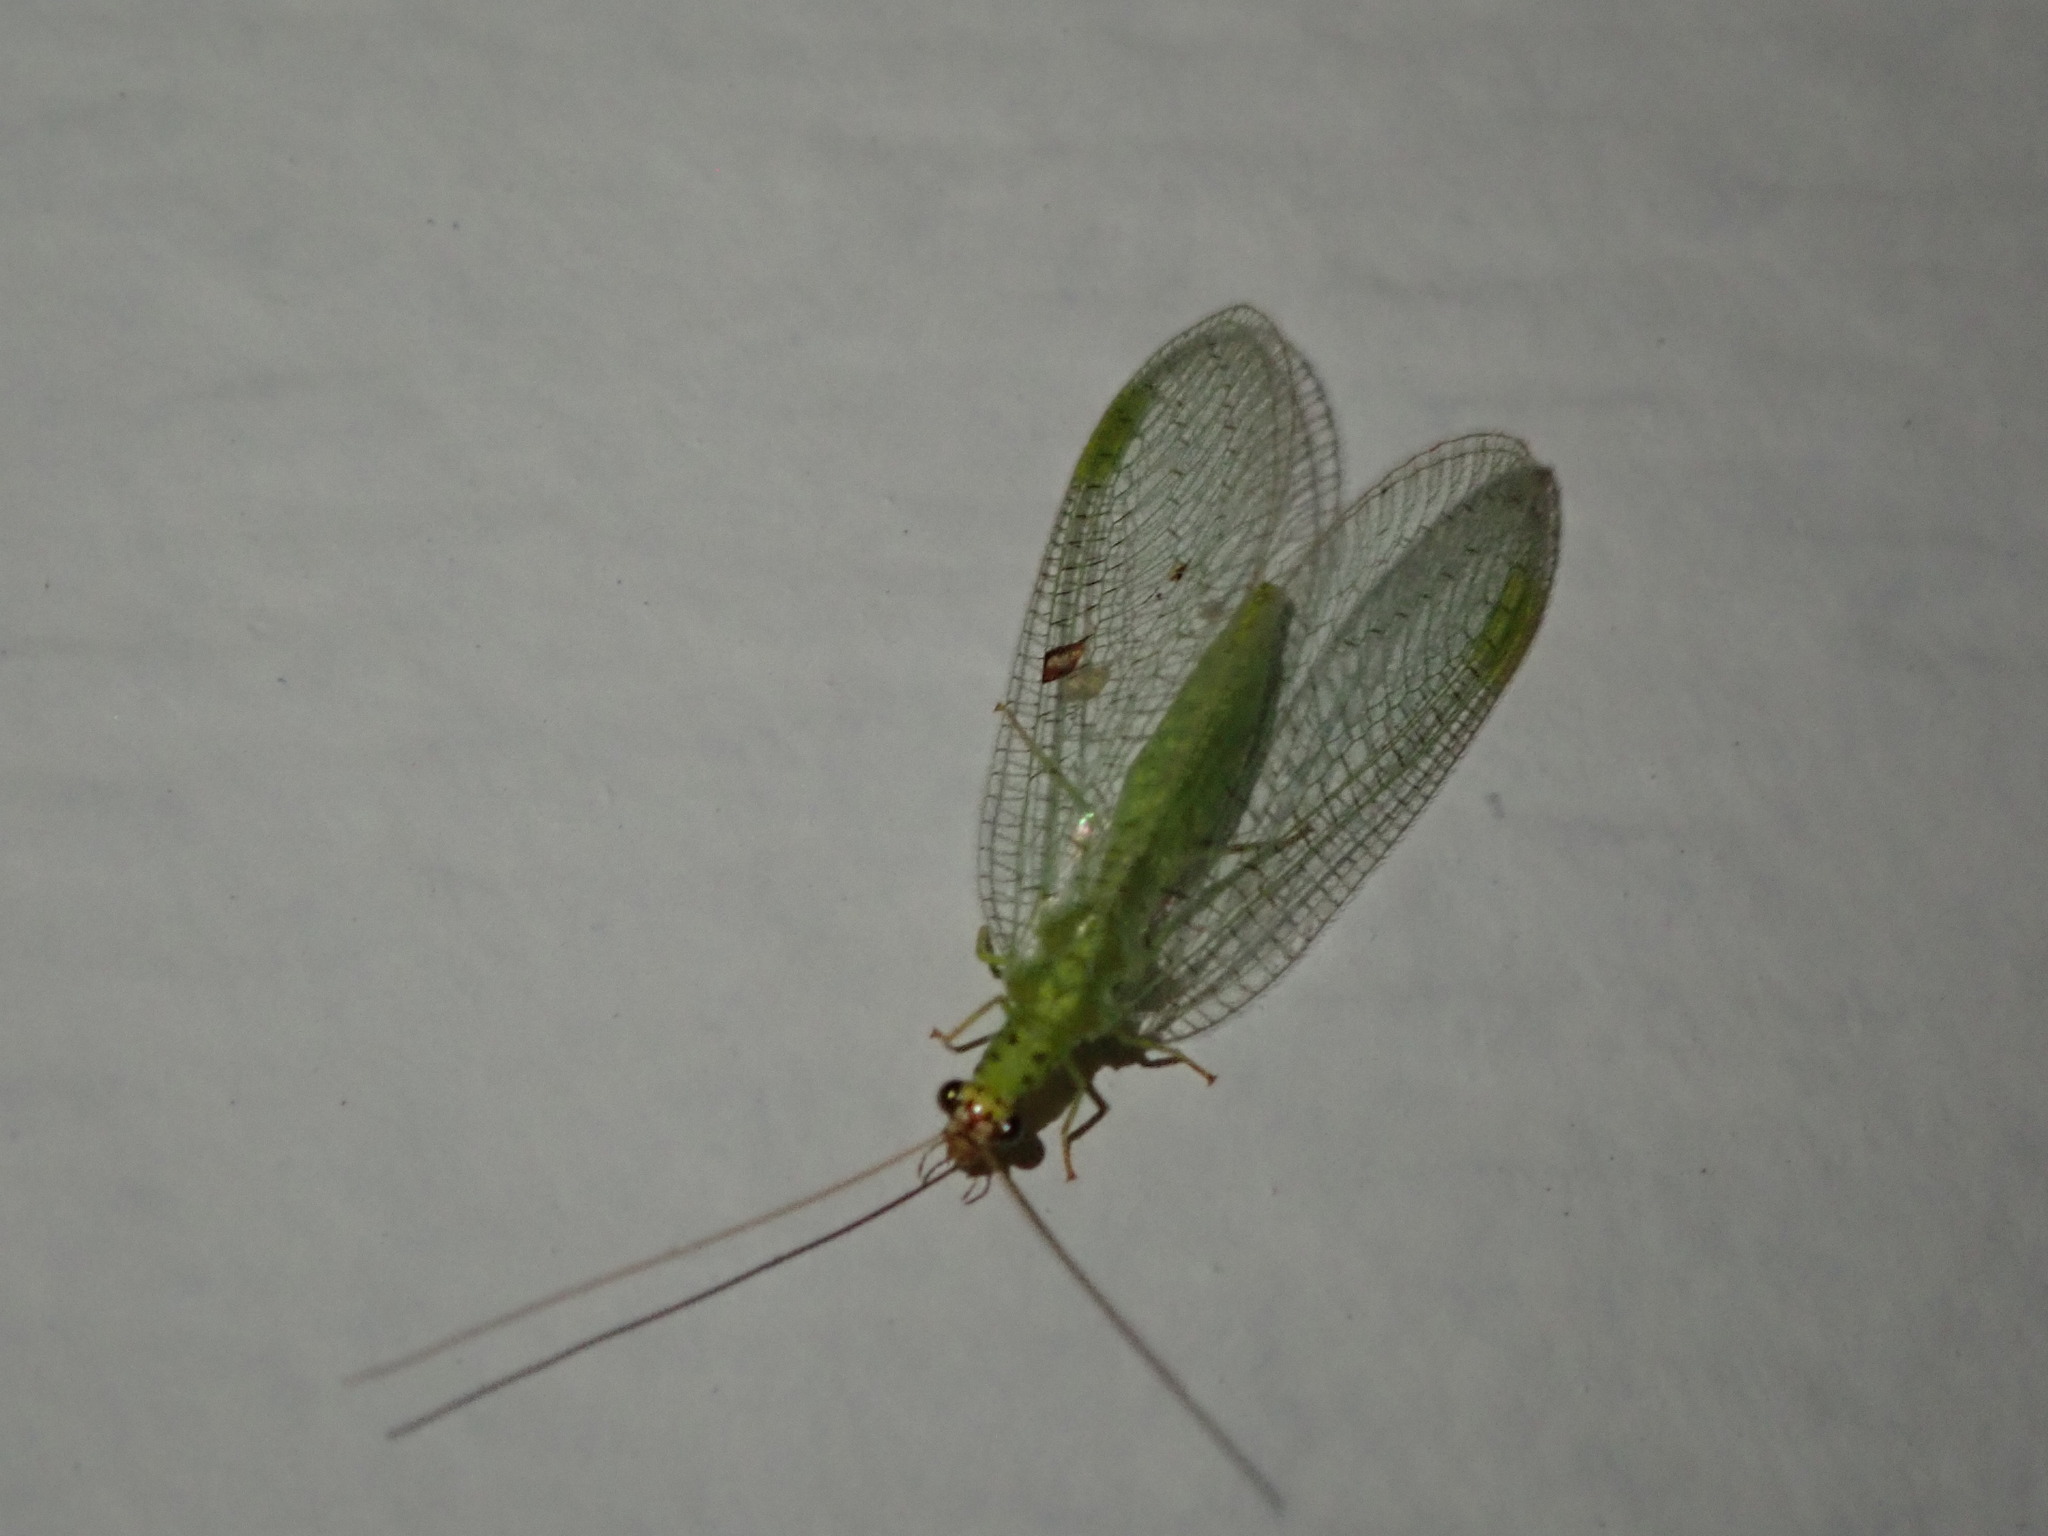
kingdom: Animalia
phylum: Arthropoda
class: Insecta
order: Neuroptera
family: Chrysopidae
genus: Chrysopa
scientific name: Chrysopa oculata
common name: Golden-eyed lacewing
